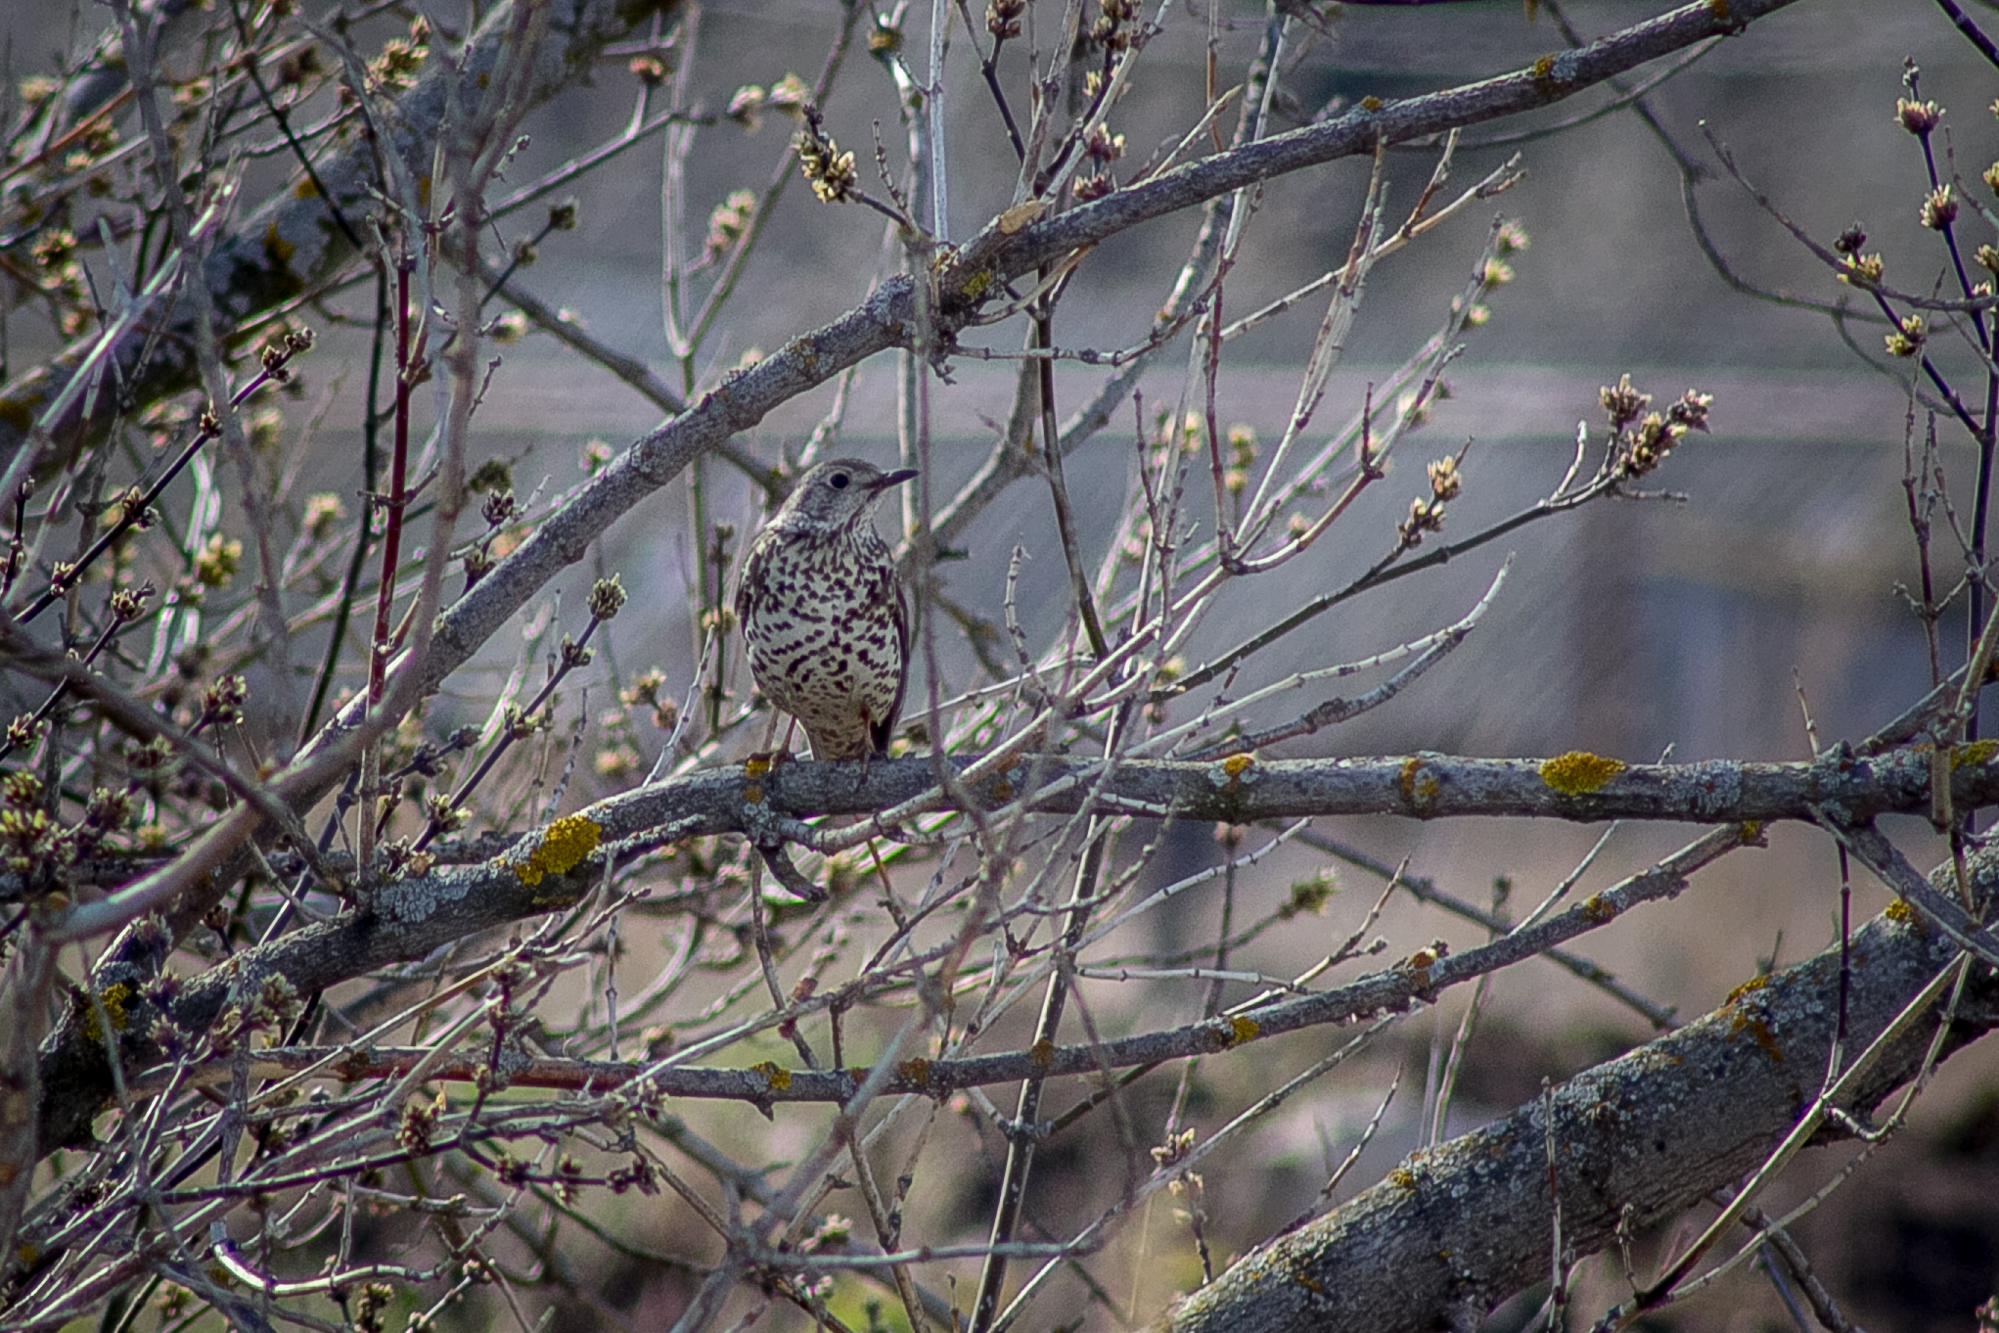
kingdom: Animalia
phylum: Chordata
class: Aves
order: Passeriformes
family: Turdidae
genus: Turdus
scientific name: Turdus viscivorus
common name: Mistle thrush
